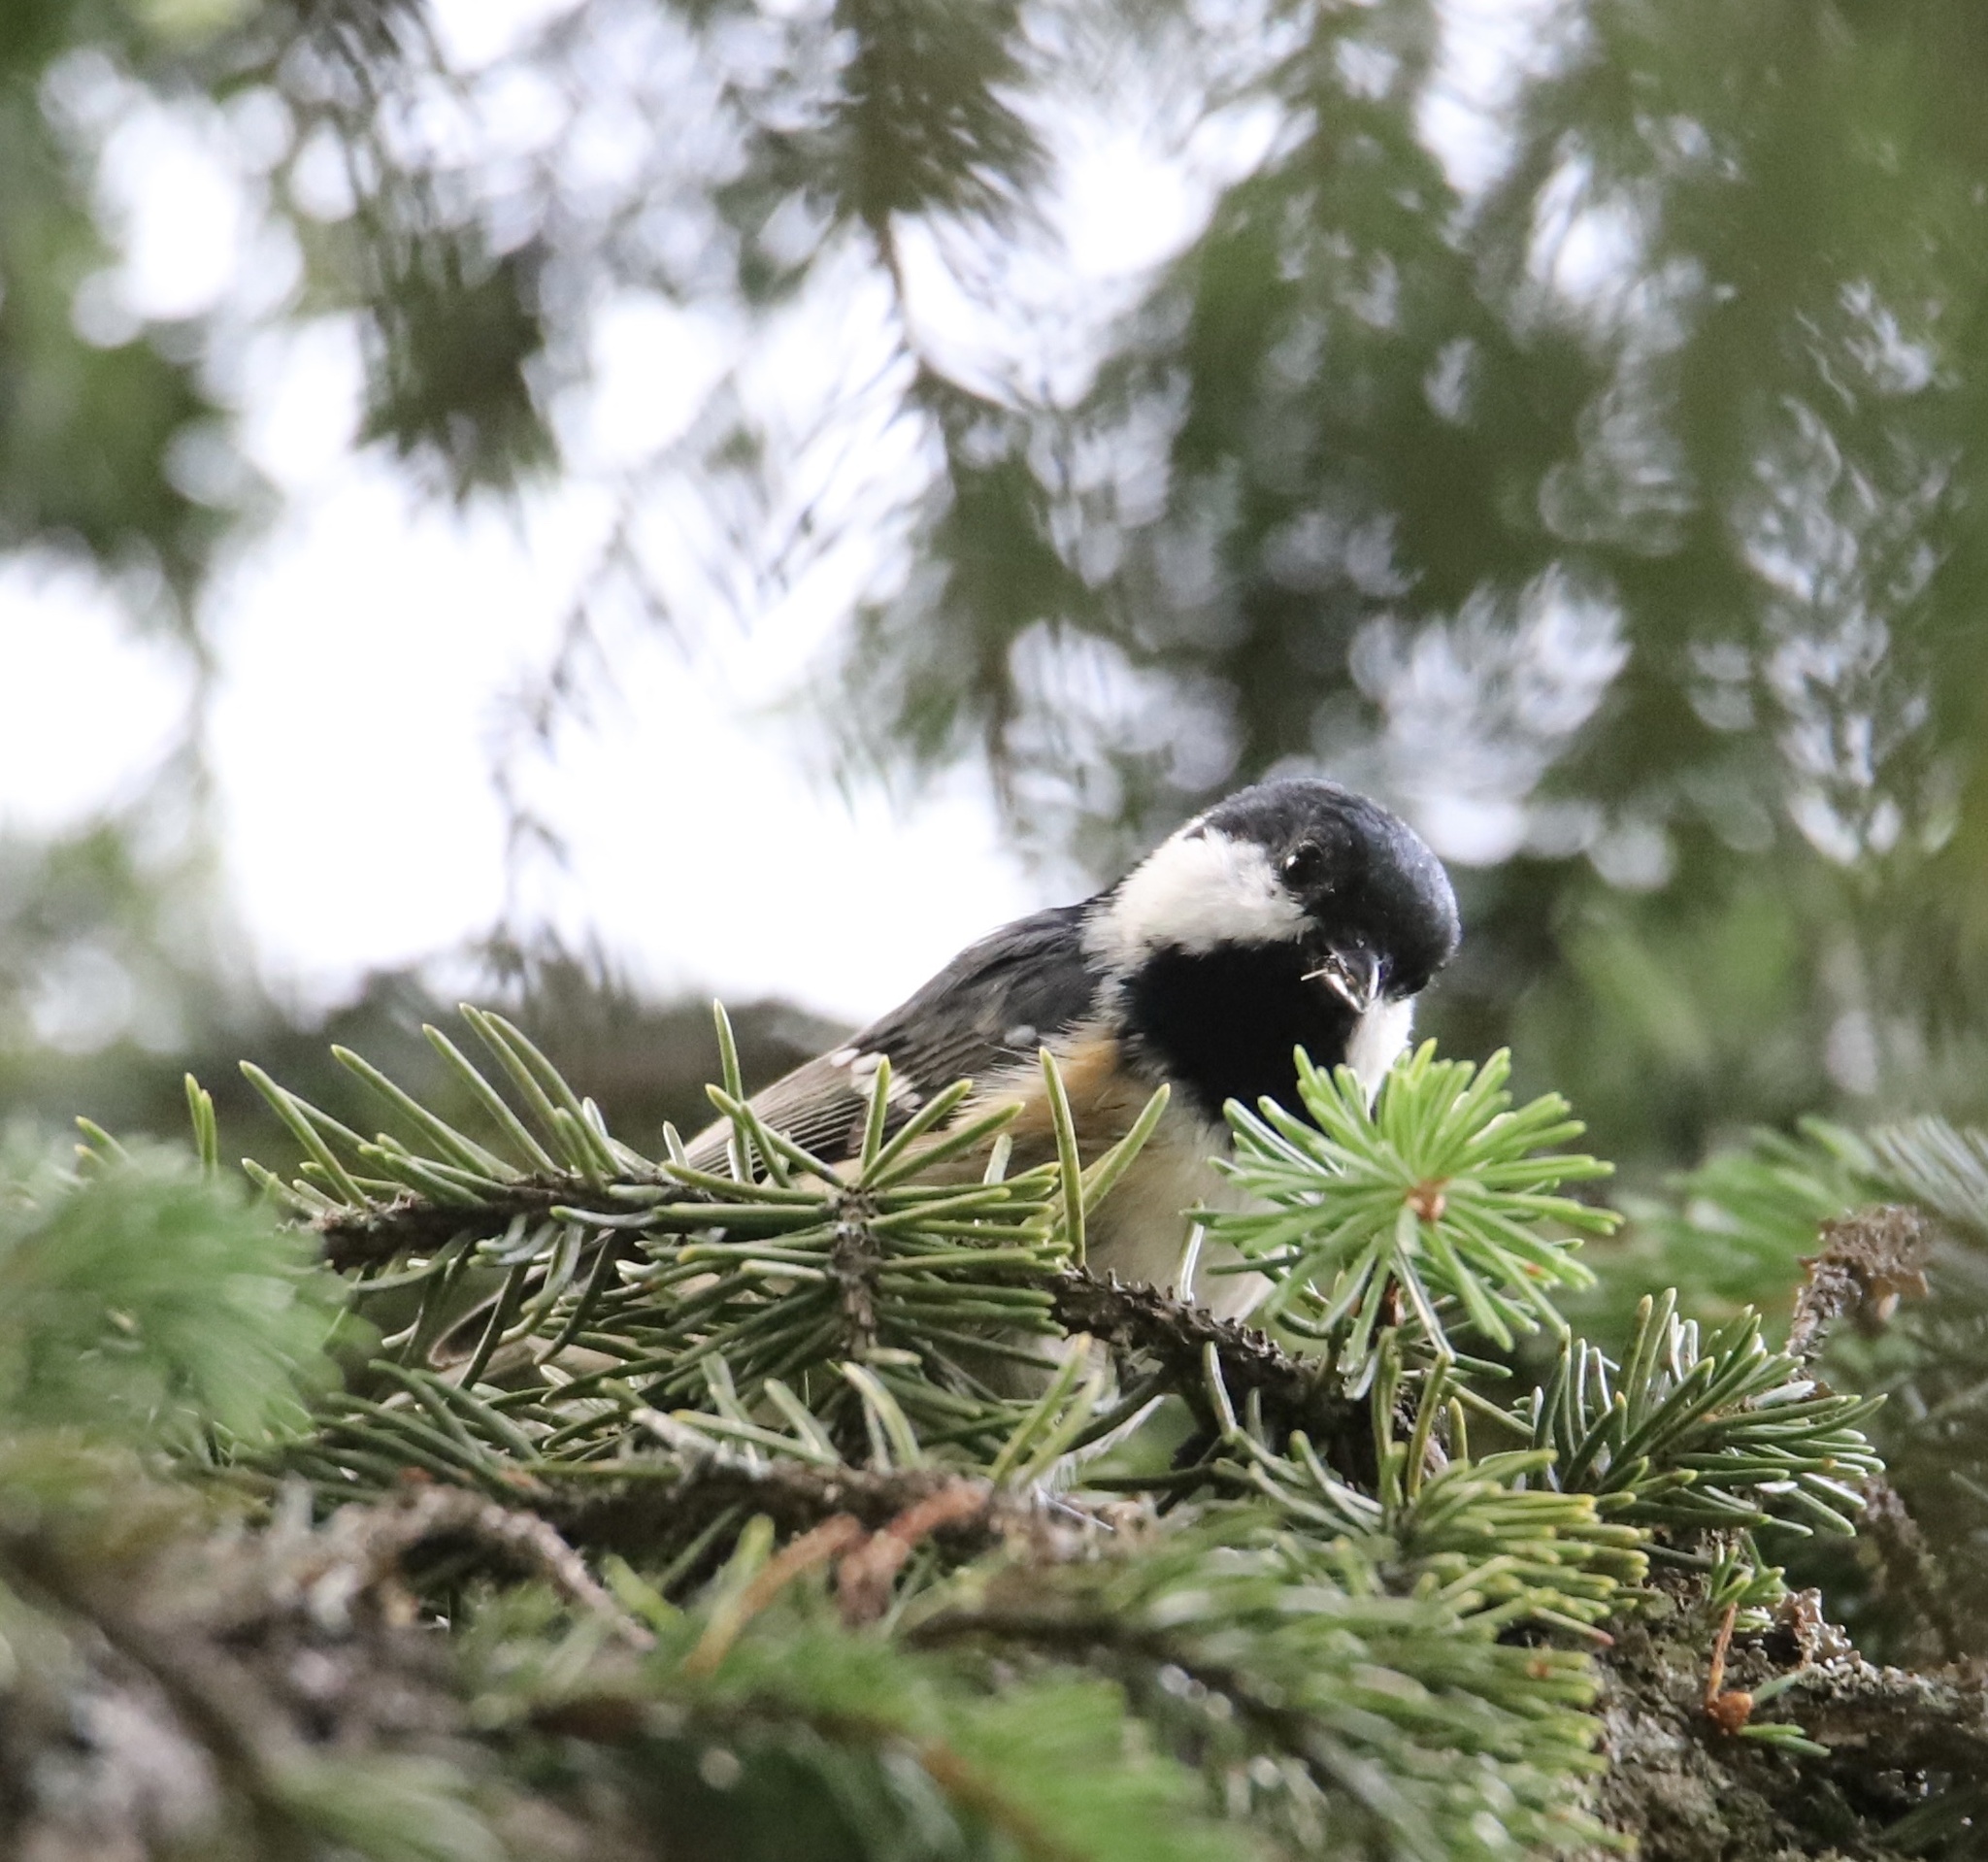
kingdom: Animalia
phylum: Chordata
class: Aves
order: Passeriformes
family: Paridae
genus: Periparus
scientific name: Periparus ater
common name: Coal tit
